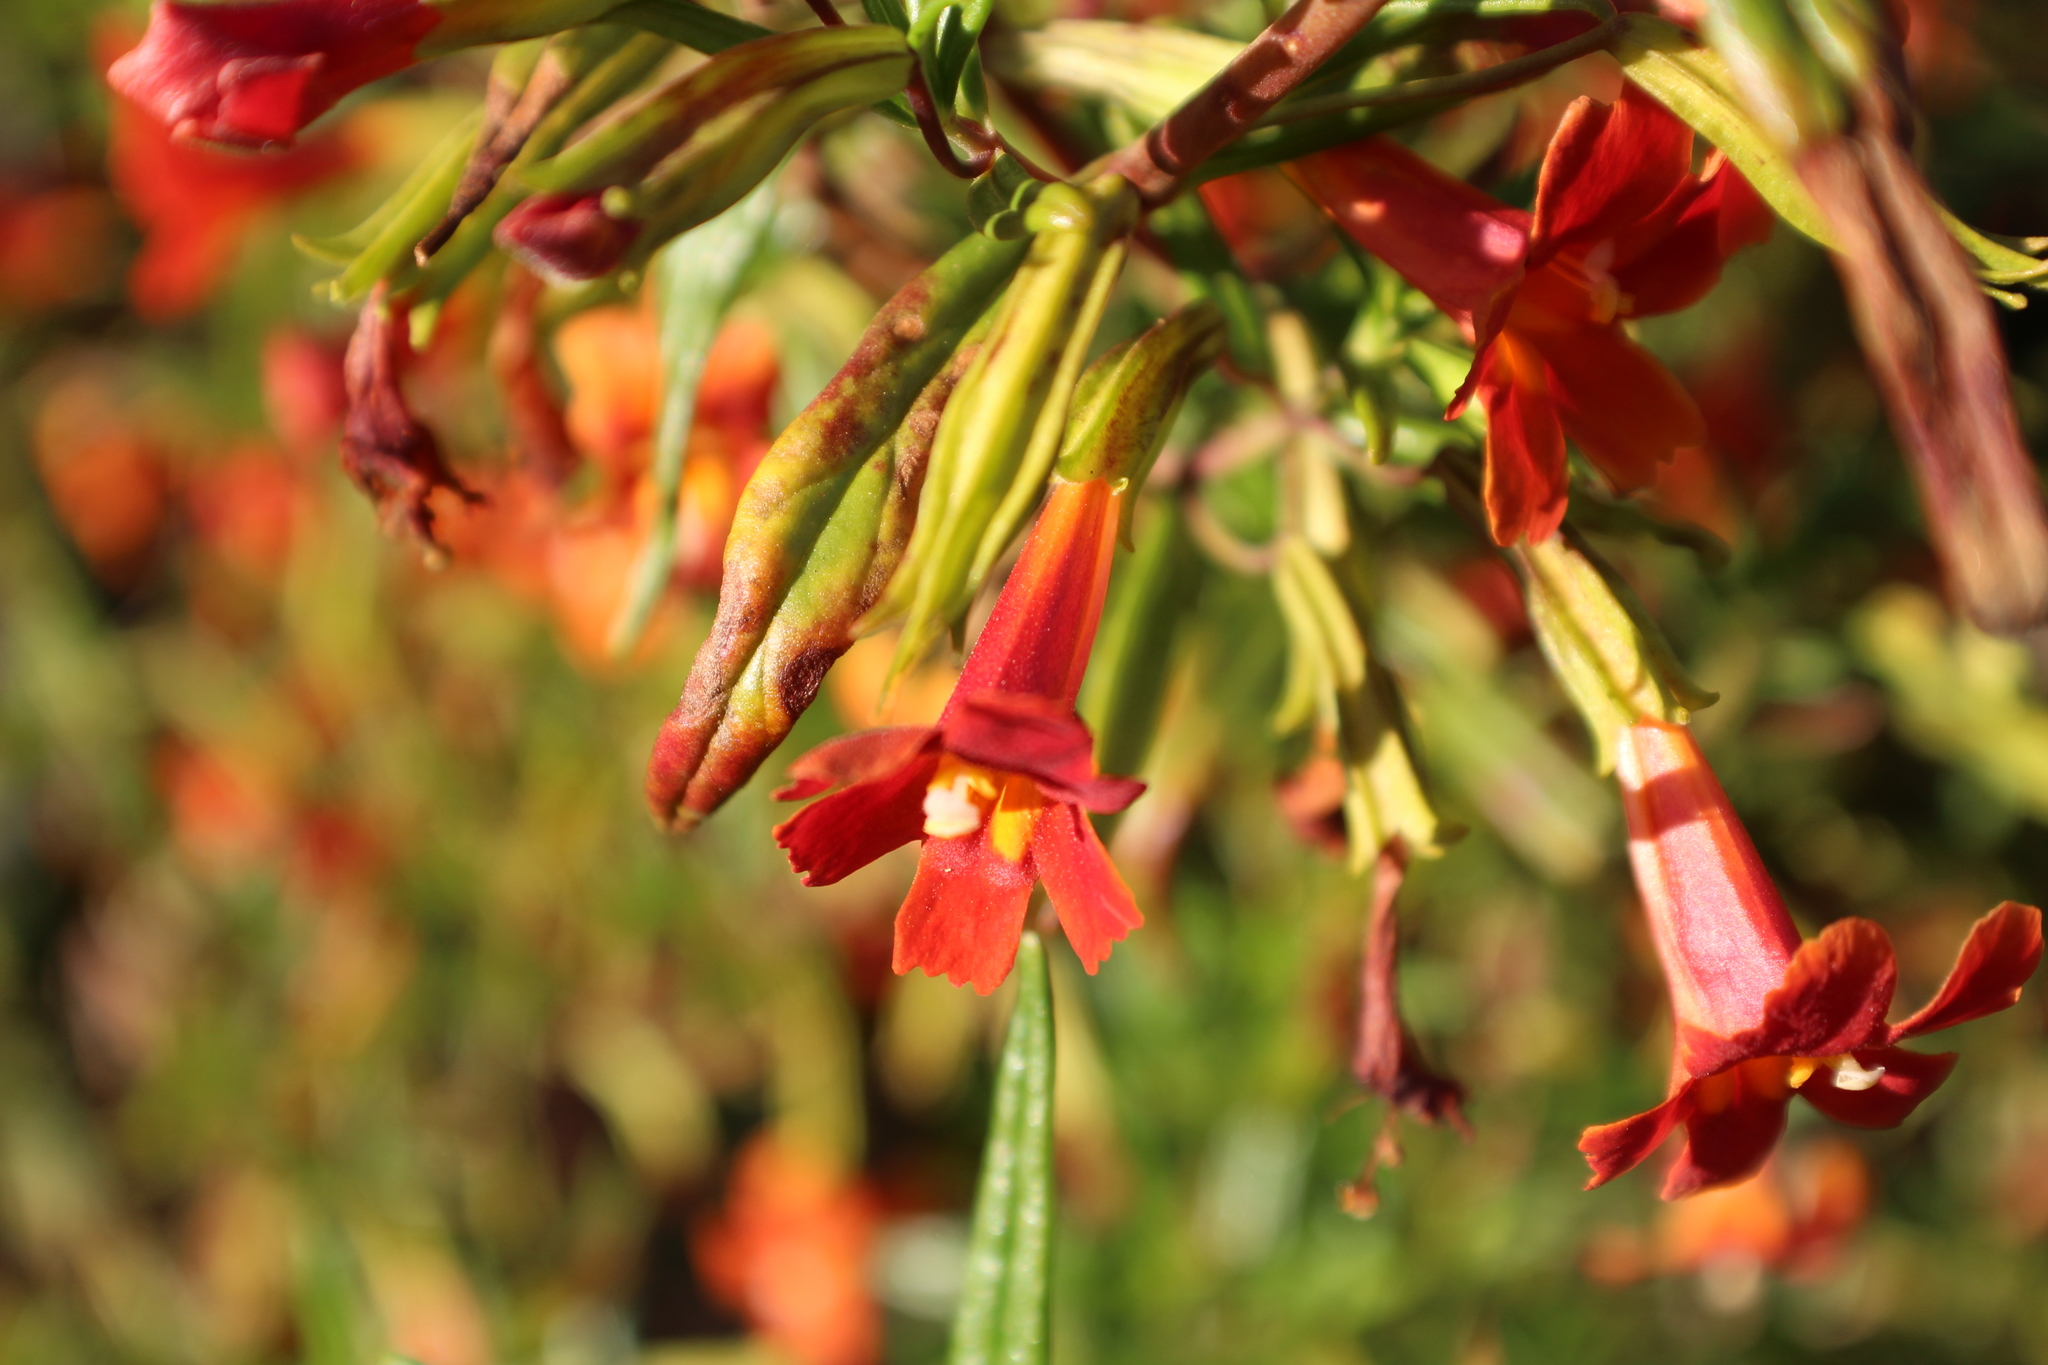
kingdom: Plantae
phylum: Tracheophyta
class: Magnoliopsida
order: Lamiales
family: Phrymaceae
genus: Diplacus
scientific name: Diplacus puniceus
